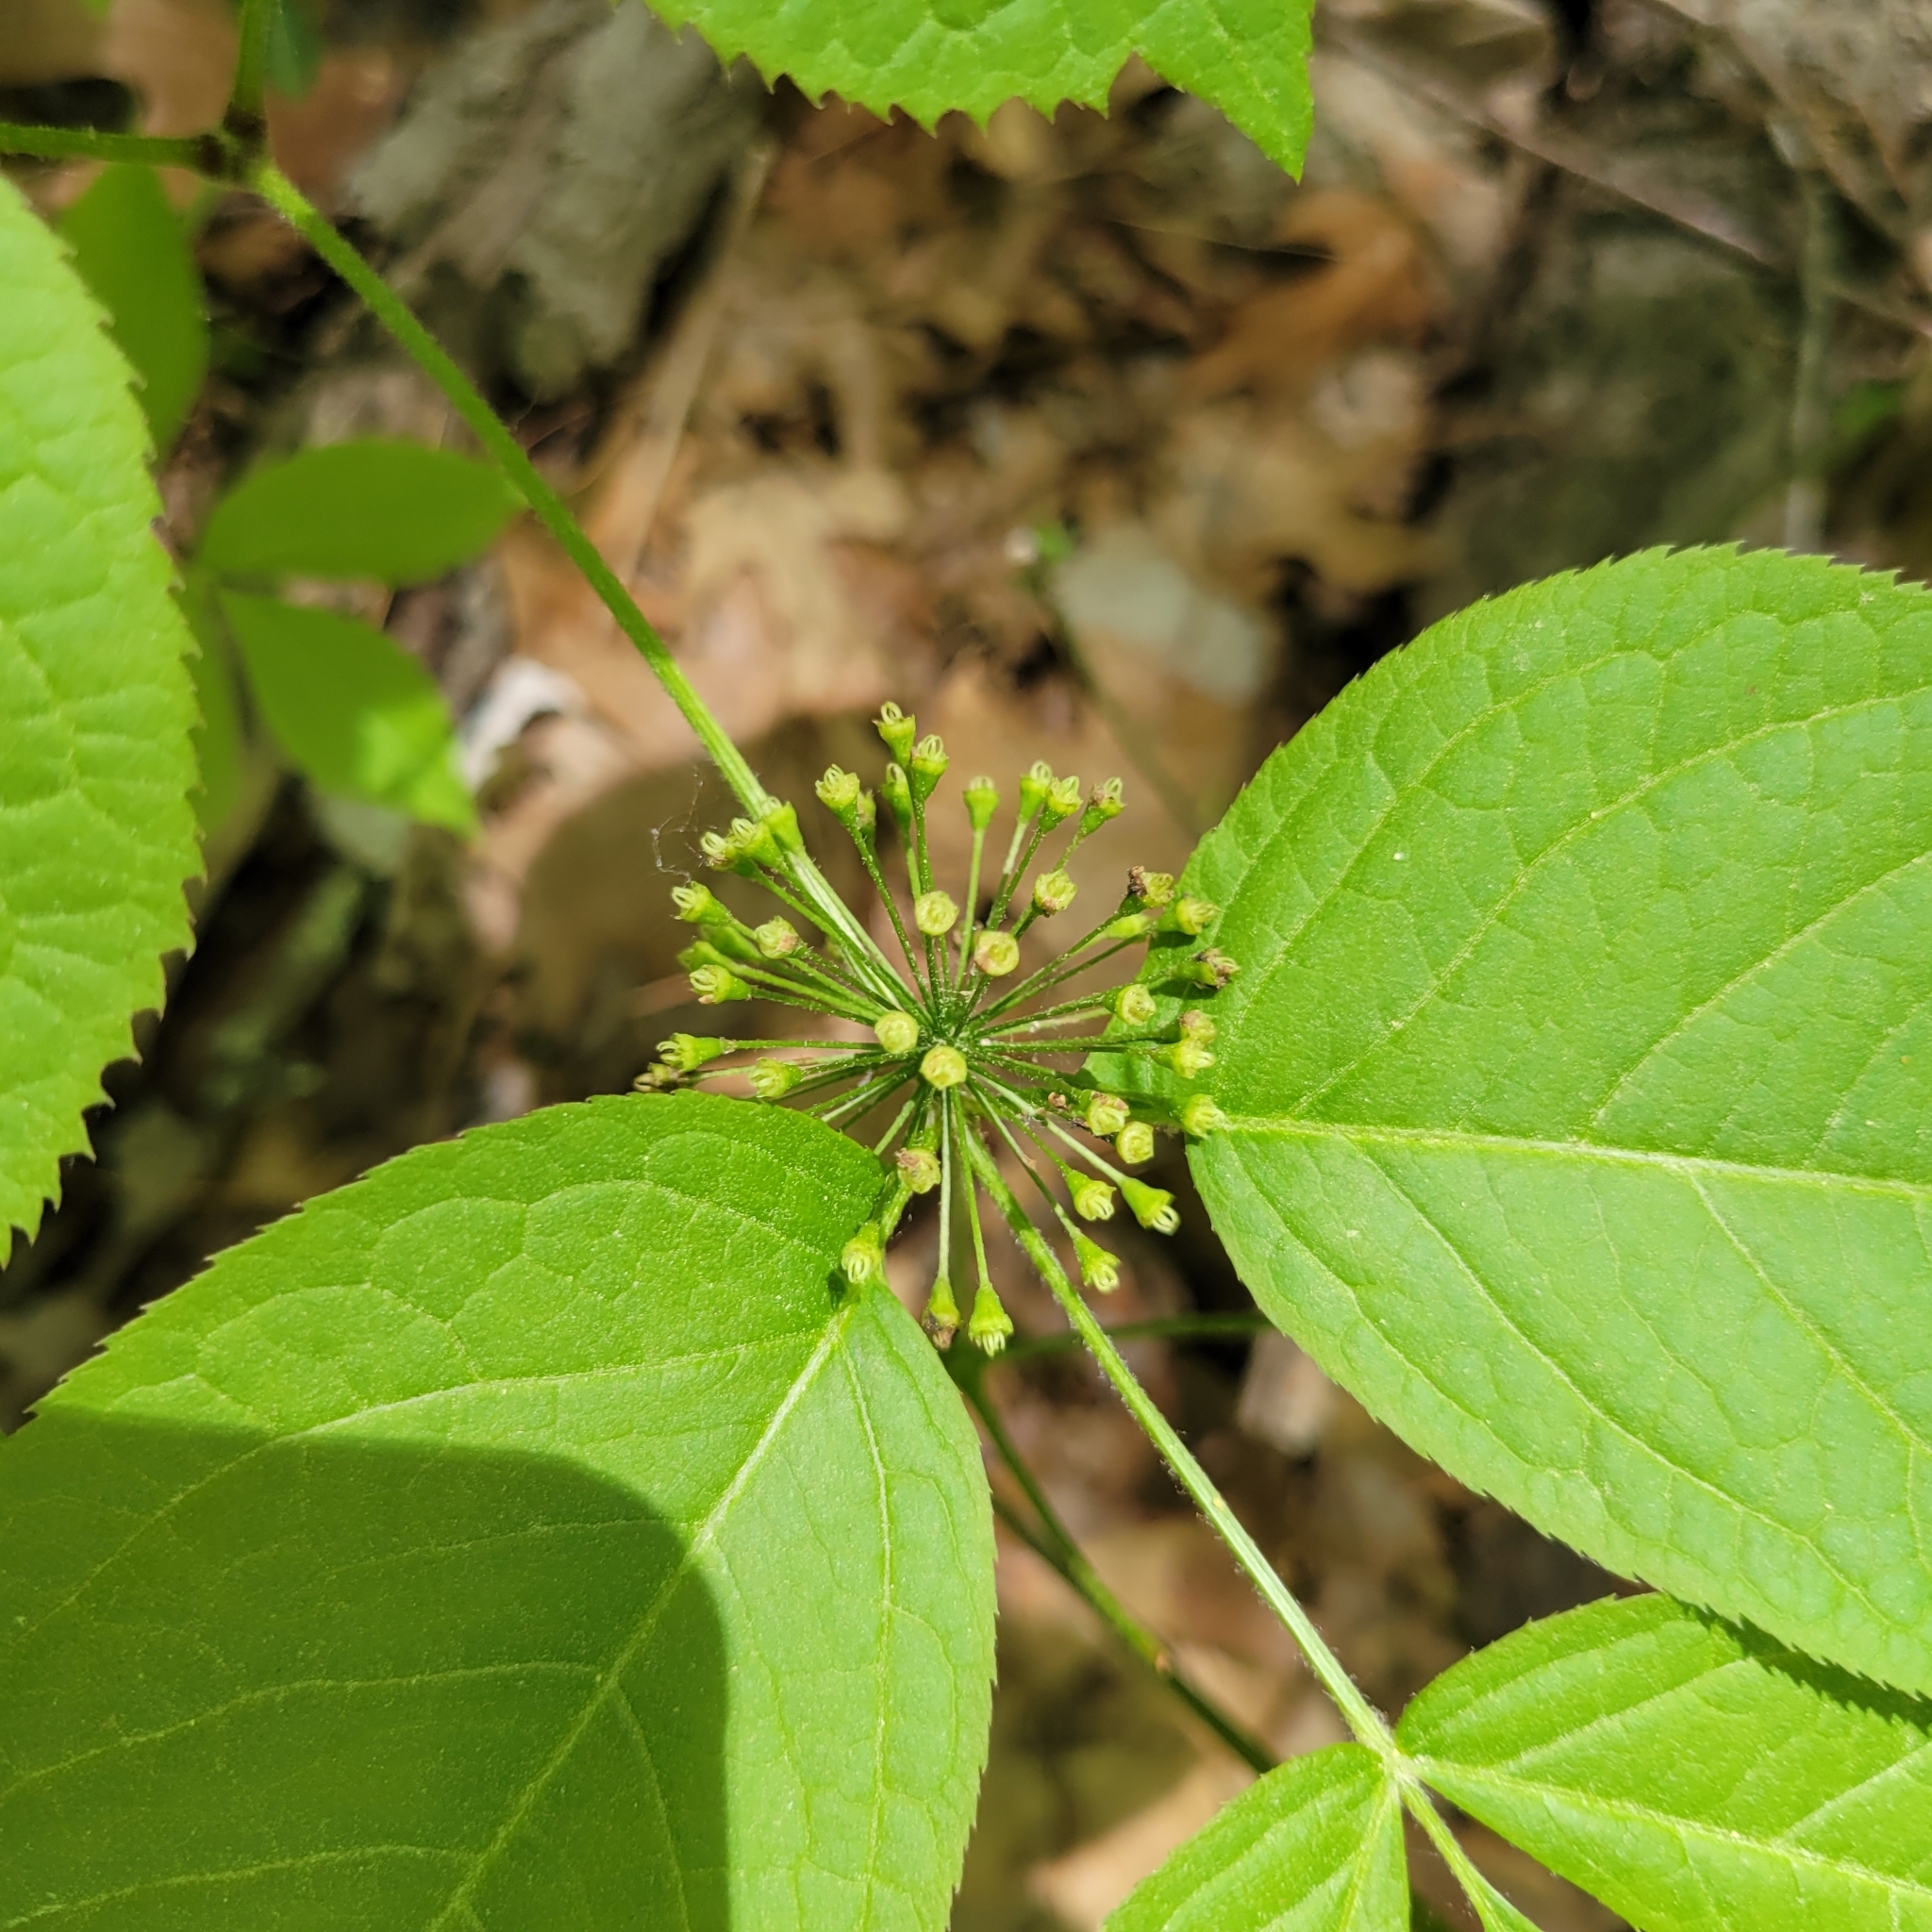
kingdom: Plantae
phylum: Tracheophyta
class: Magnoliopsida
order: Apiales
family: Araliaceae
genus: Aralia
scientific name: Aralia nudicaulis
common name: Wild sarsaparilla
